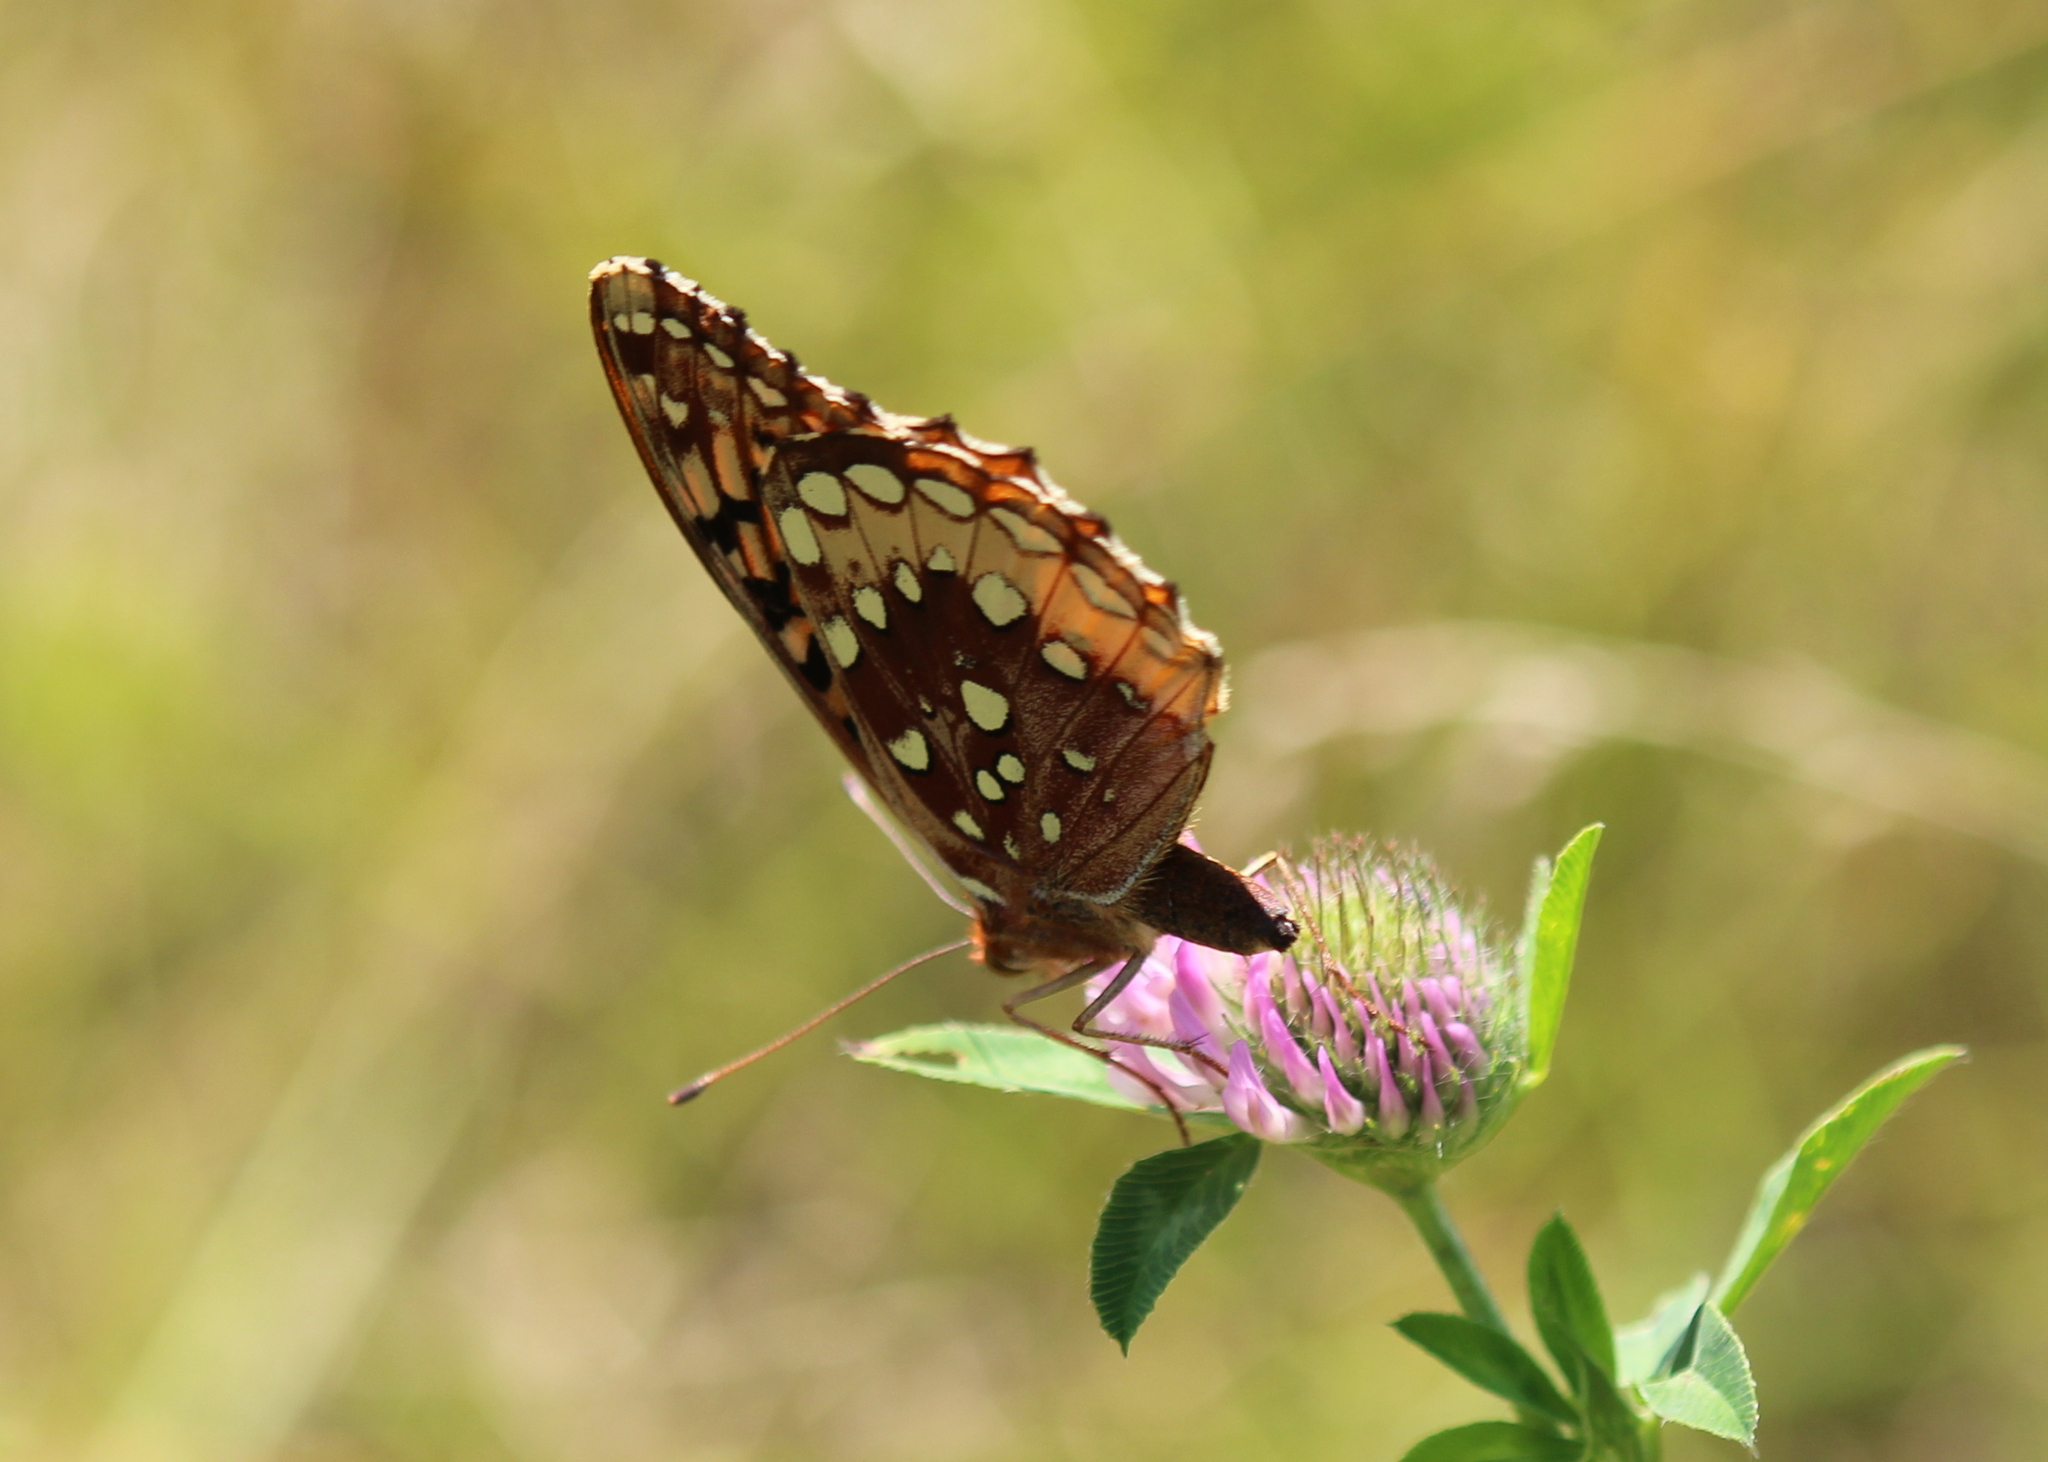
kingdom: Animalia
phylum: Arthropoda
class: Insecta
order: Lepidoptera
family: Nymphalidae
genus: Speyeria
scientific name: Speyeria cybele
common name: Great spangled fritillary
